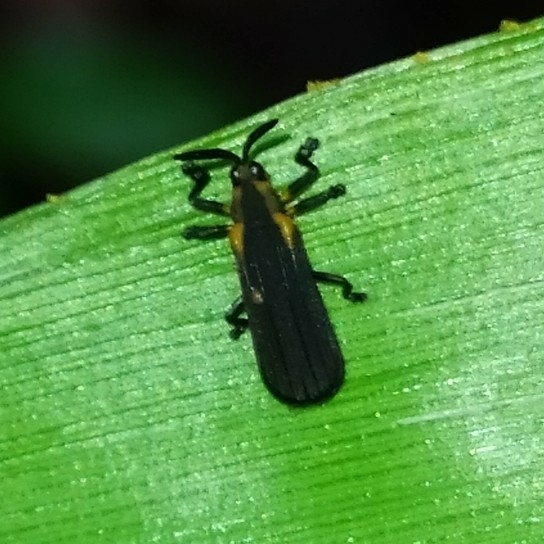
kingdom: Animalia
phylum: Arthropoda
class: Insecta
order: Coleoptera
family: Chrysomelidae
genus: Chalepispa
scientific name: Chalepispa ignorata
